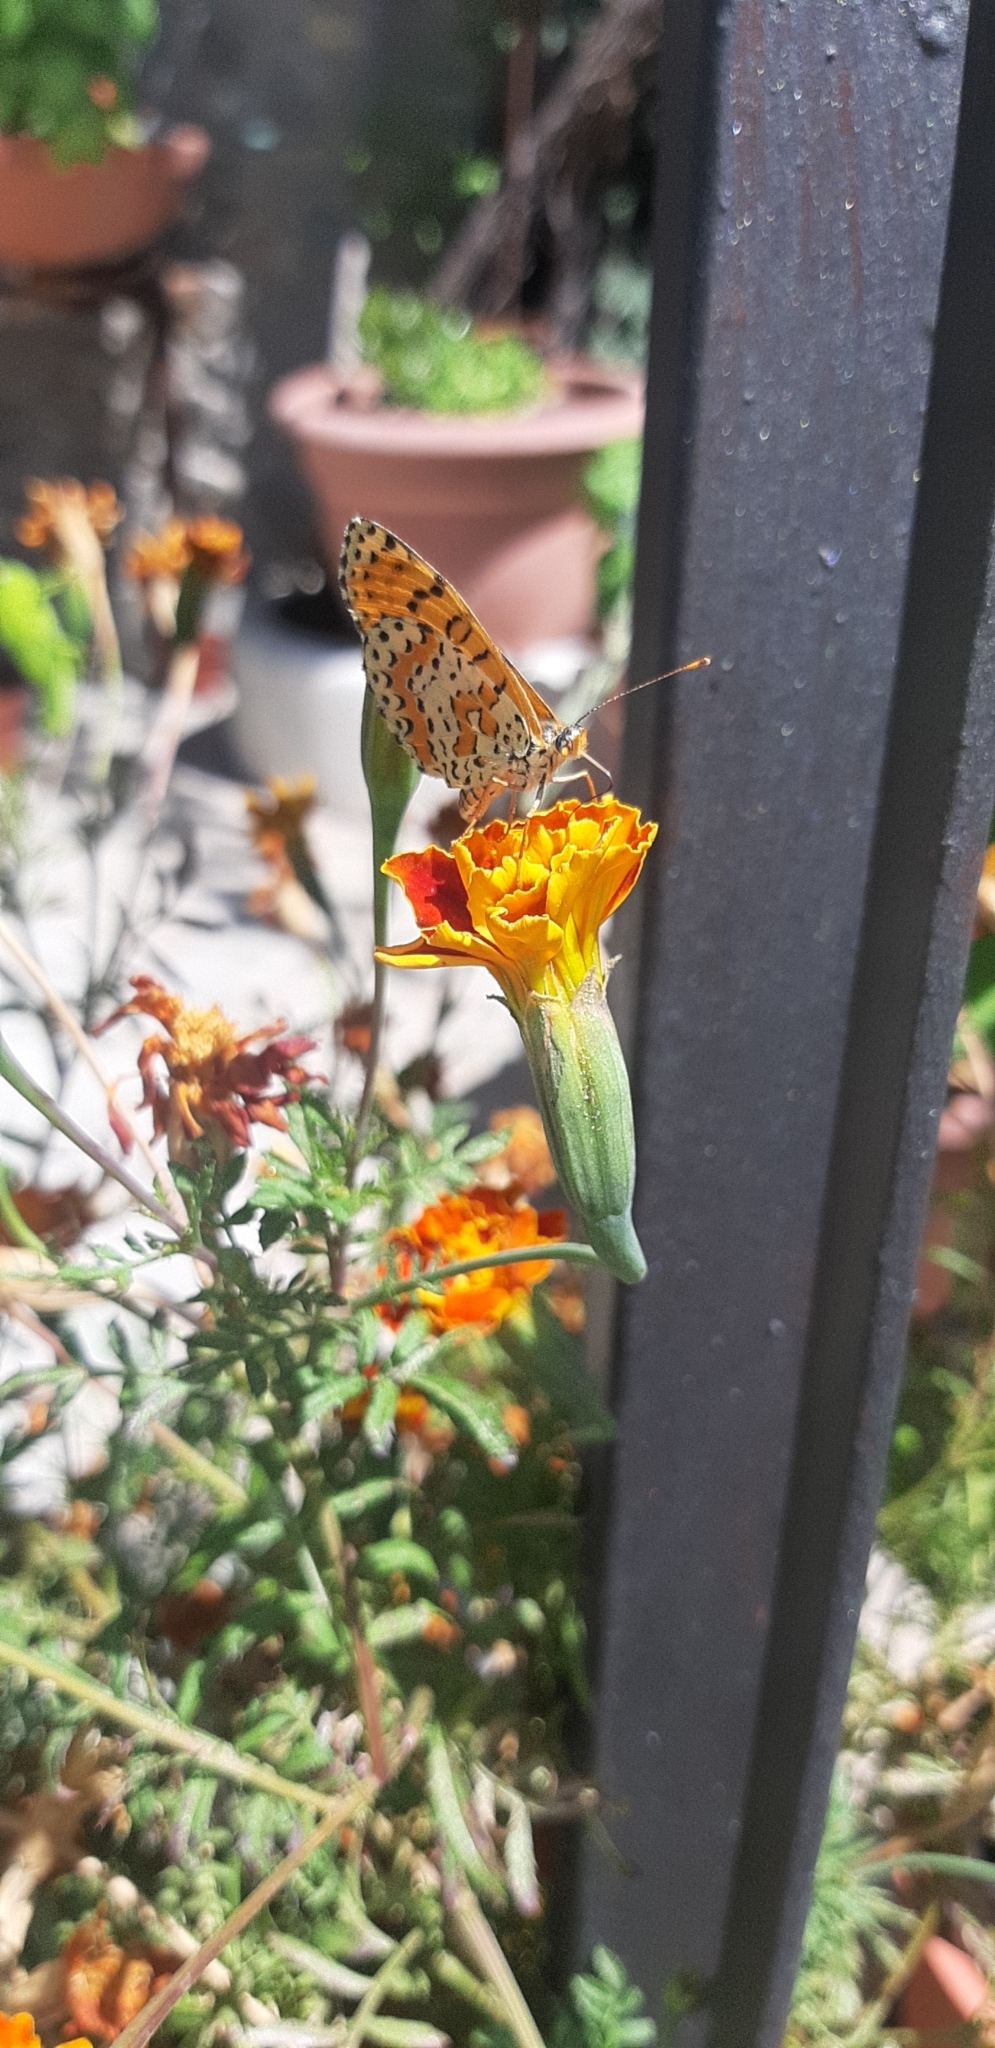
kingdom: Animalia
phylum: Arthropoda
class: Insecta
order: Lepidoptera
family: Nymphalidae
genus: Melitaea
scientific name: Melitaea didyma
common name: Spotted fritillary
